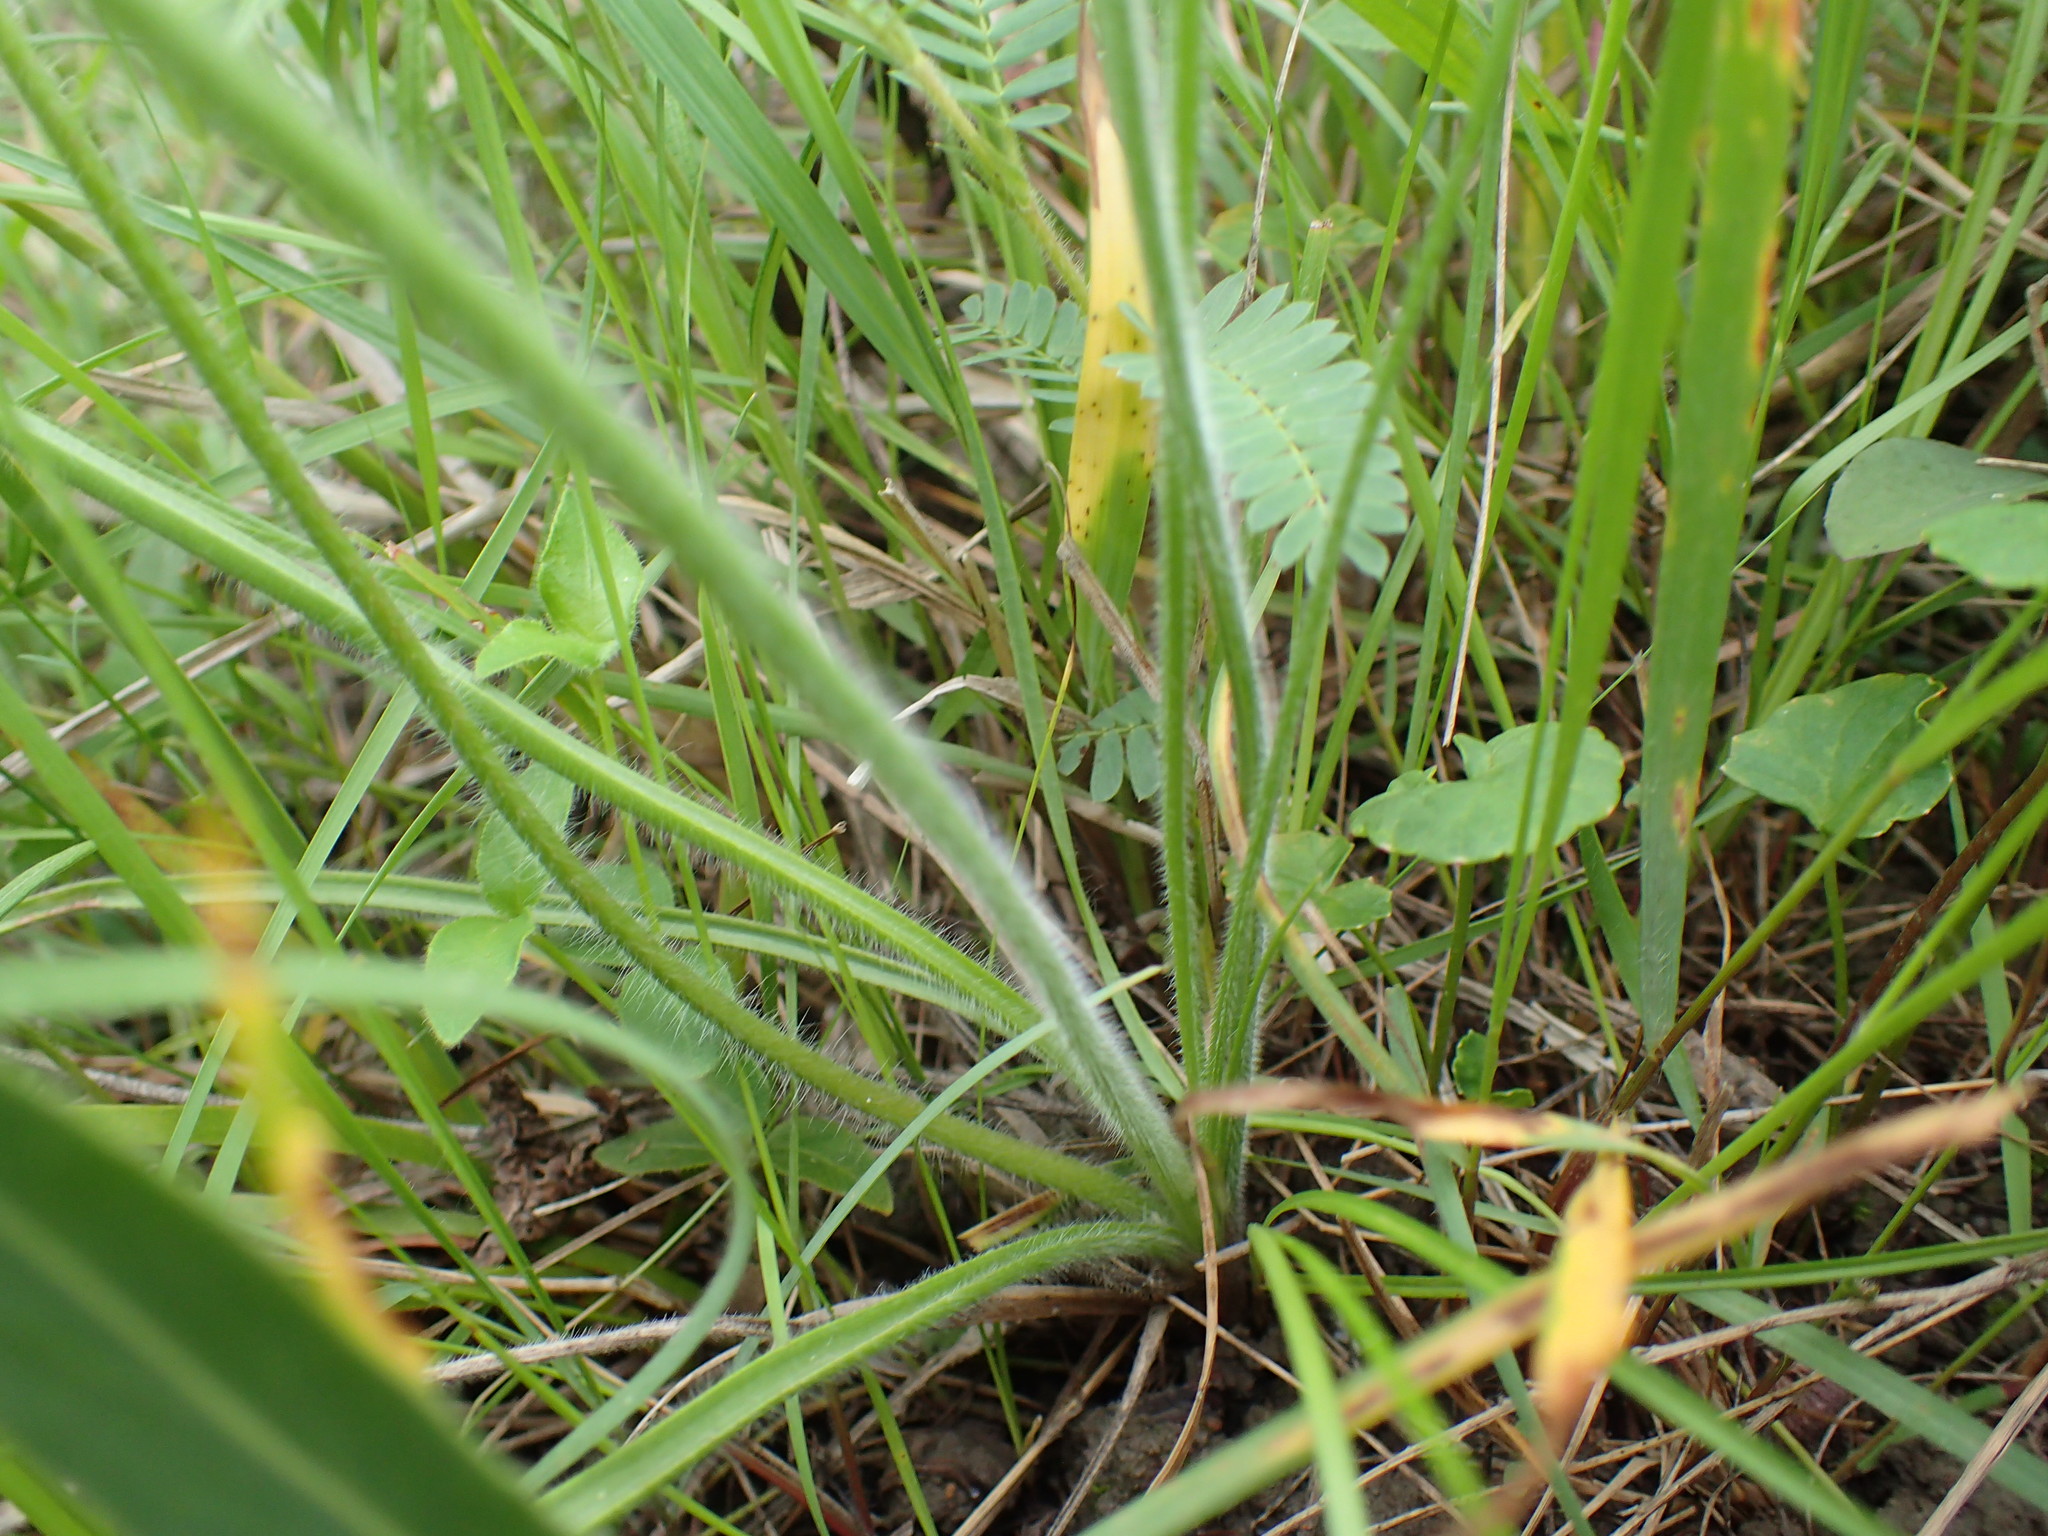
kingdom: Plantae
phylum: Tracheophyta
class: Liliopsida
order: Asparagales
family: Asphodelaceae
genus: Trachyandra
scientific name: Trachyandra asperata
